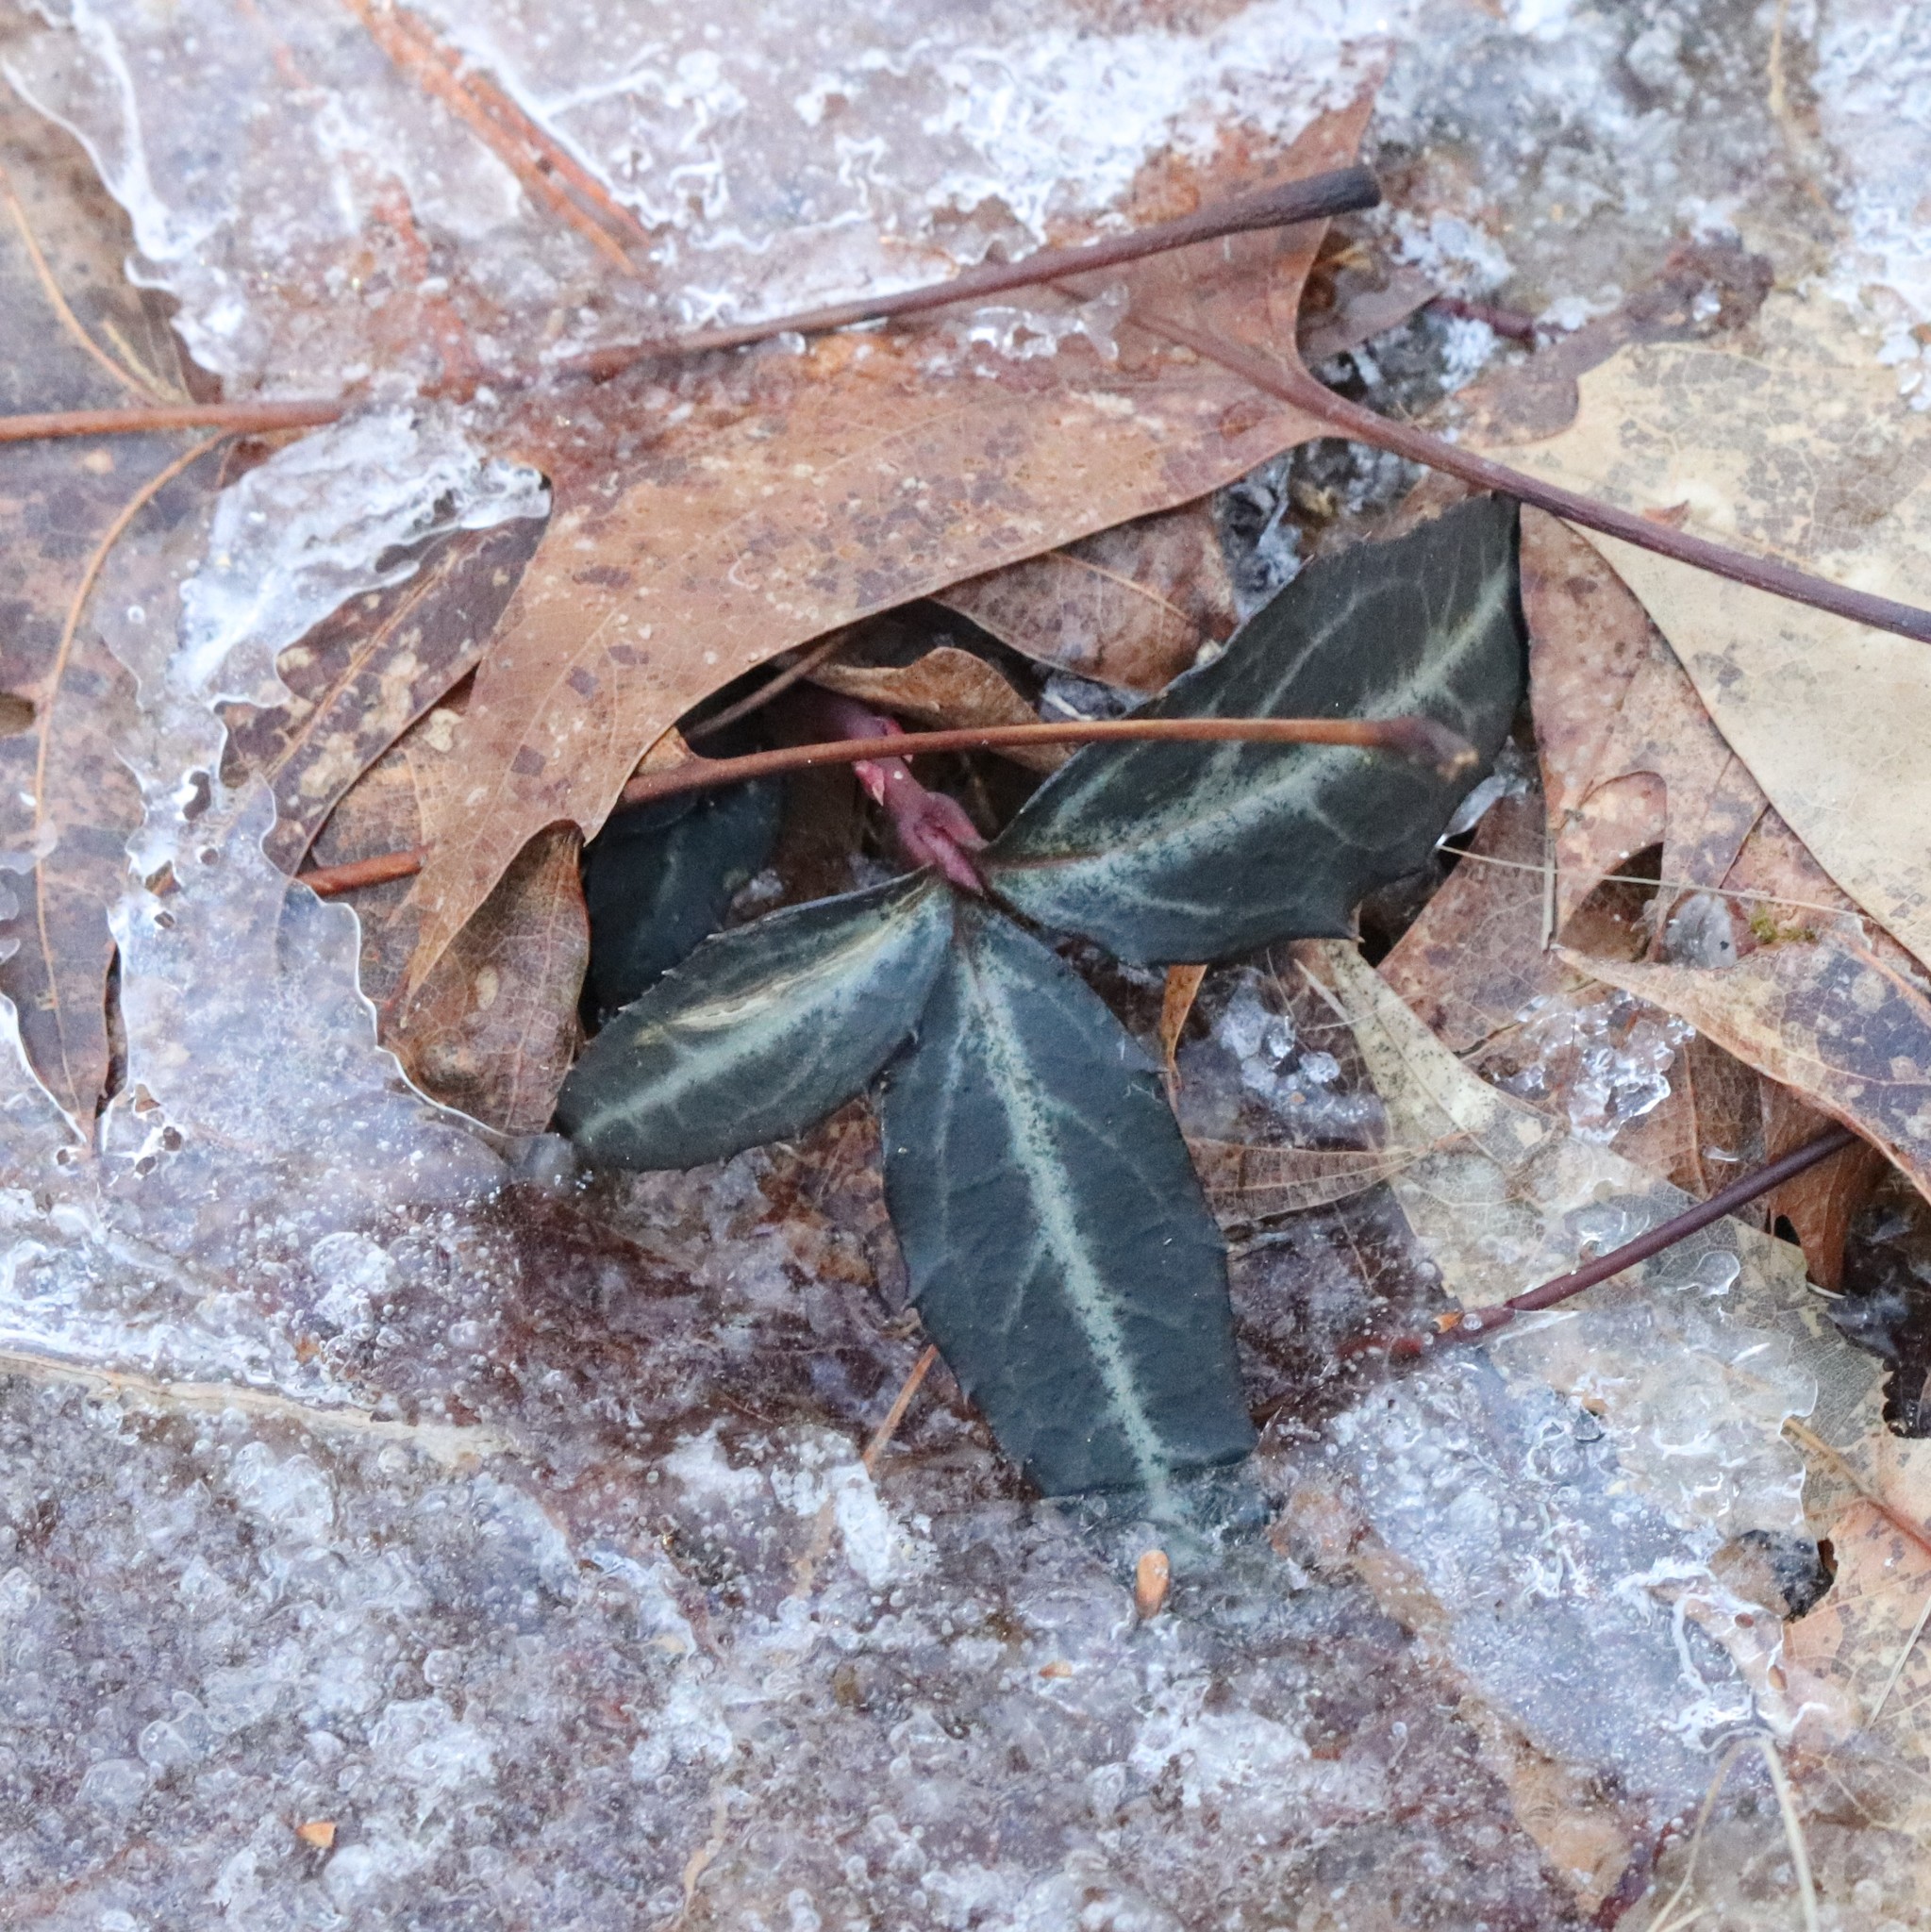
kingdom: Plantae
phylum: Tracheophyta
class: Magnoliopsida
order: Ericales
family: Ericaceae
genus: Chimaphila
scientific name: Chimaphila maculata
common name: Spotted pipsissewa
